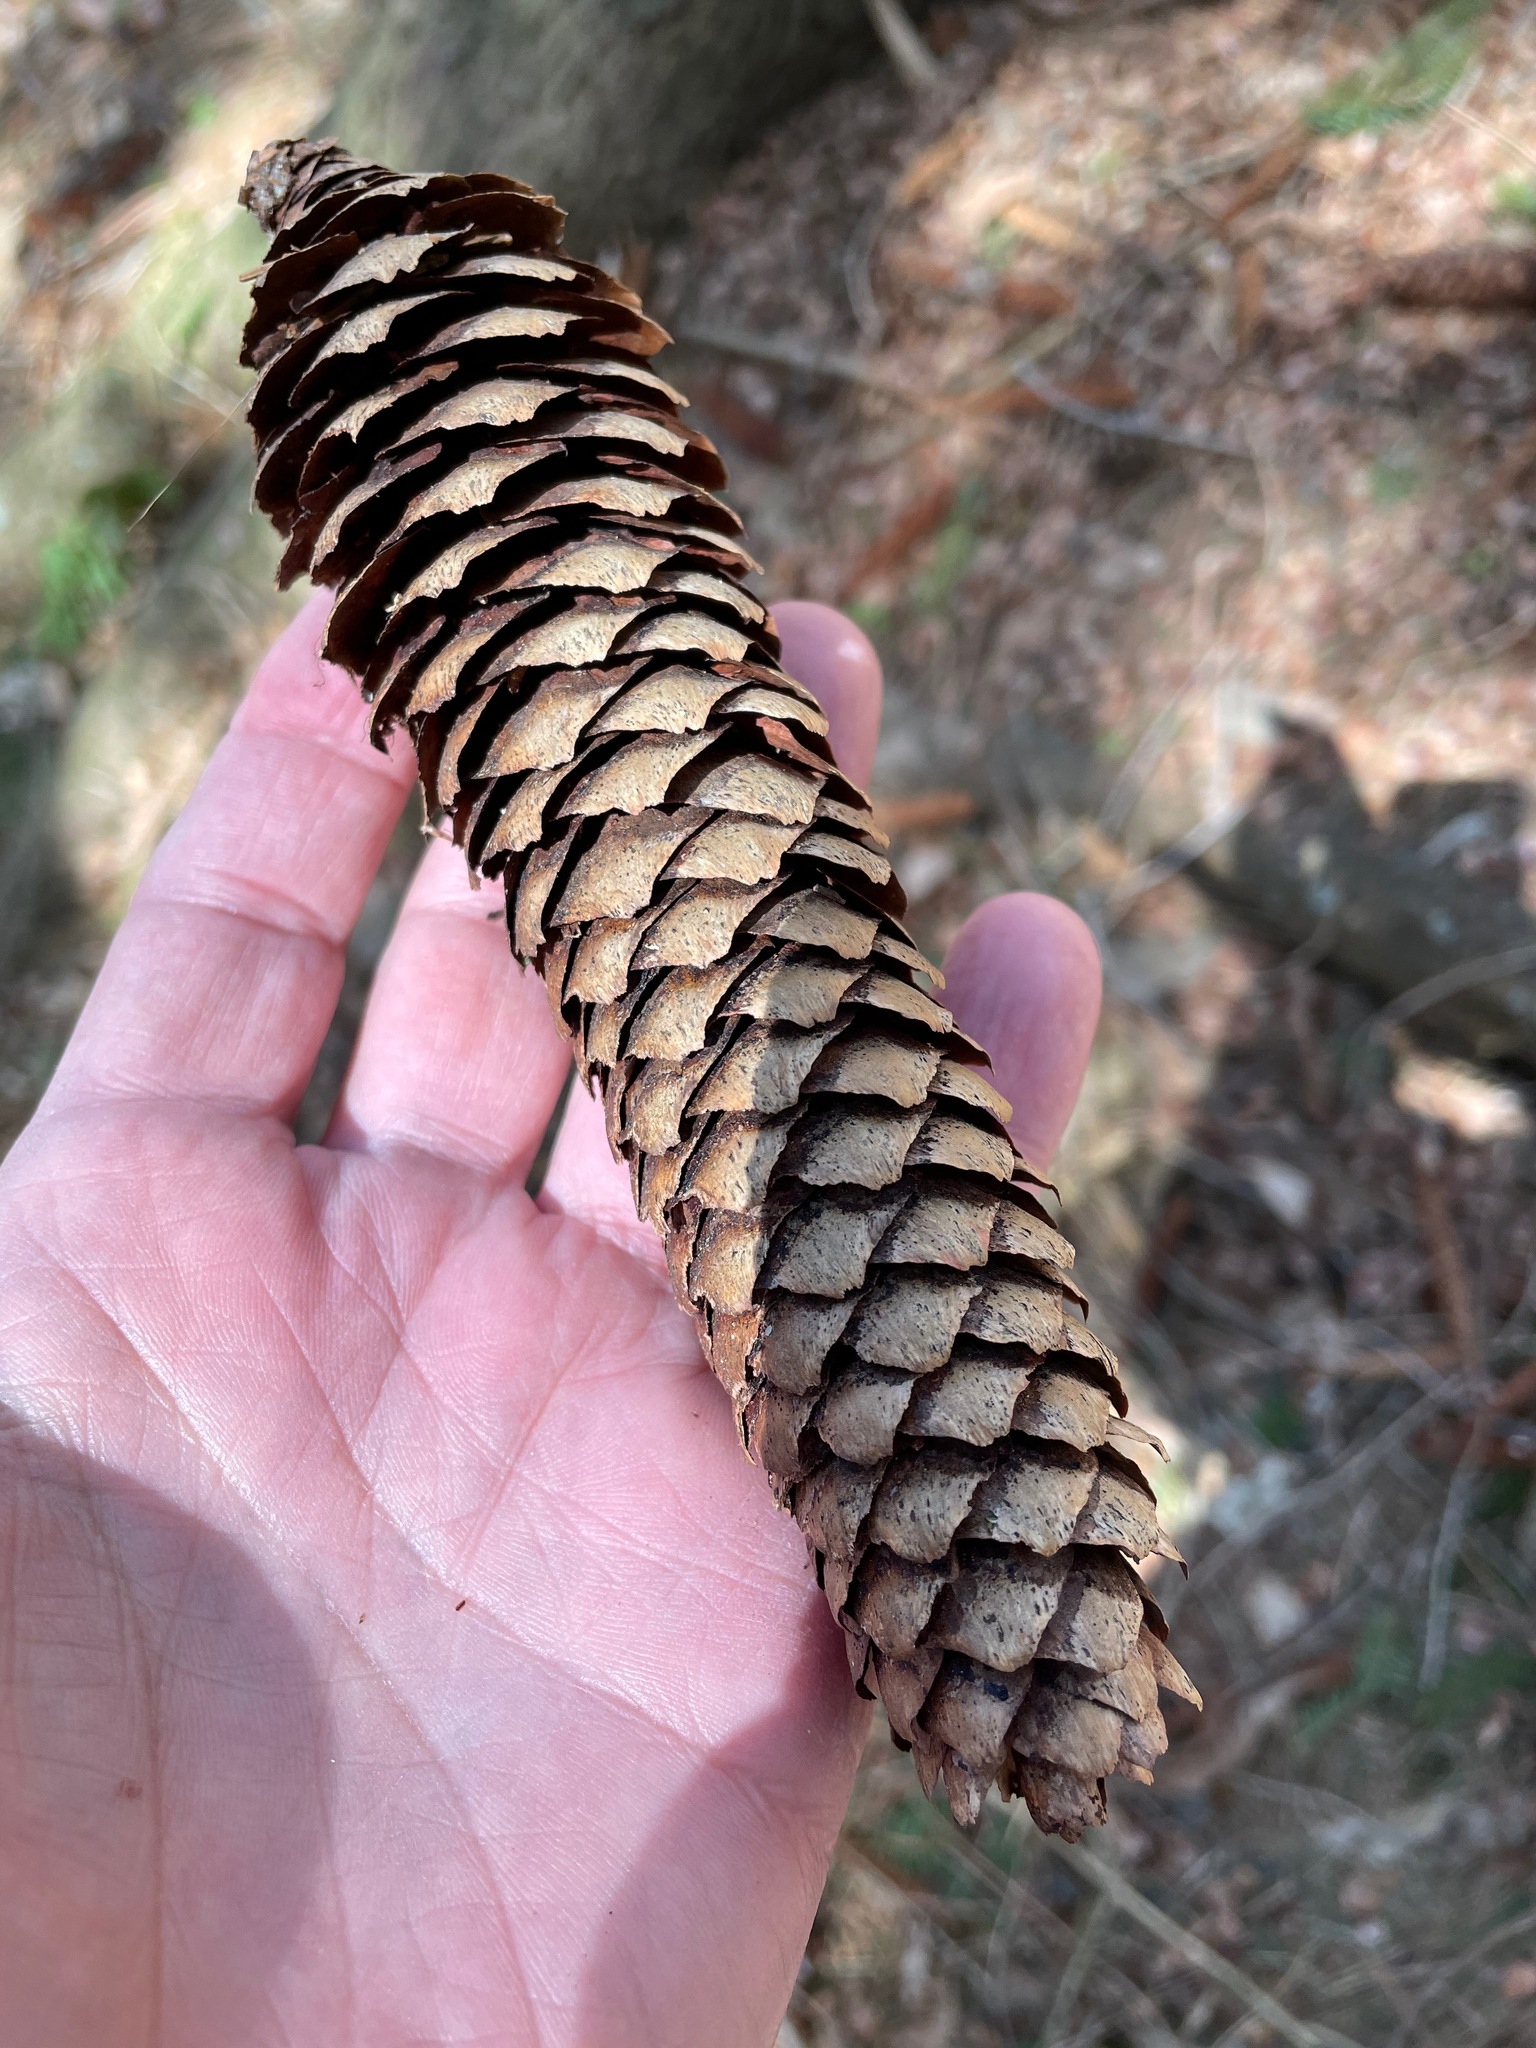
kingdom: Plantae
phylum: Tracheophyta
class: Pinopsida
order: Pinales
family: Pinaceae
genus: Picea
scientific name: Picea abies
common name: Norway spruce
